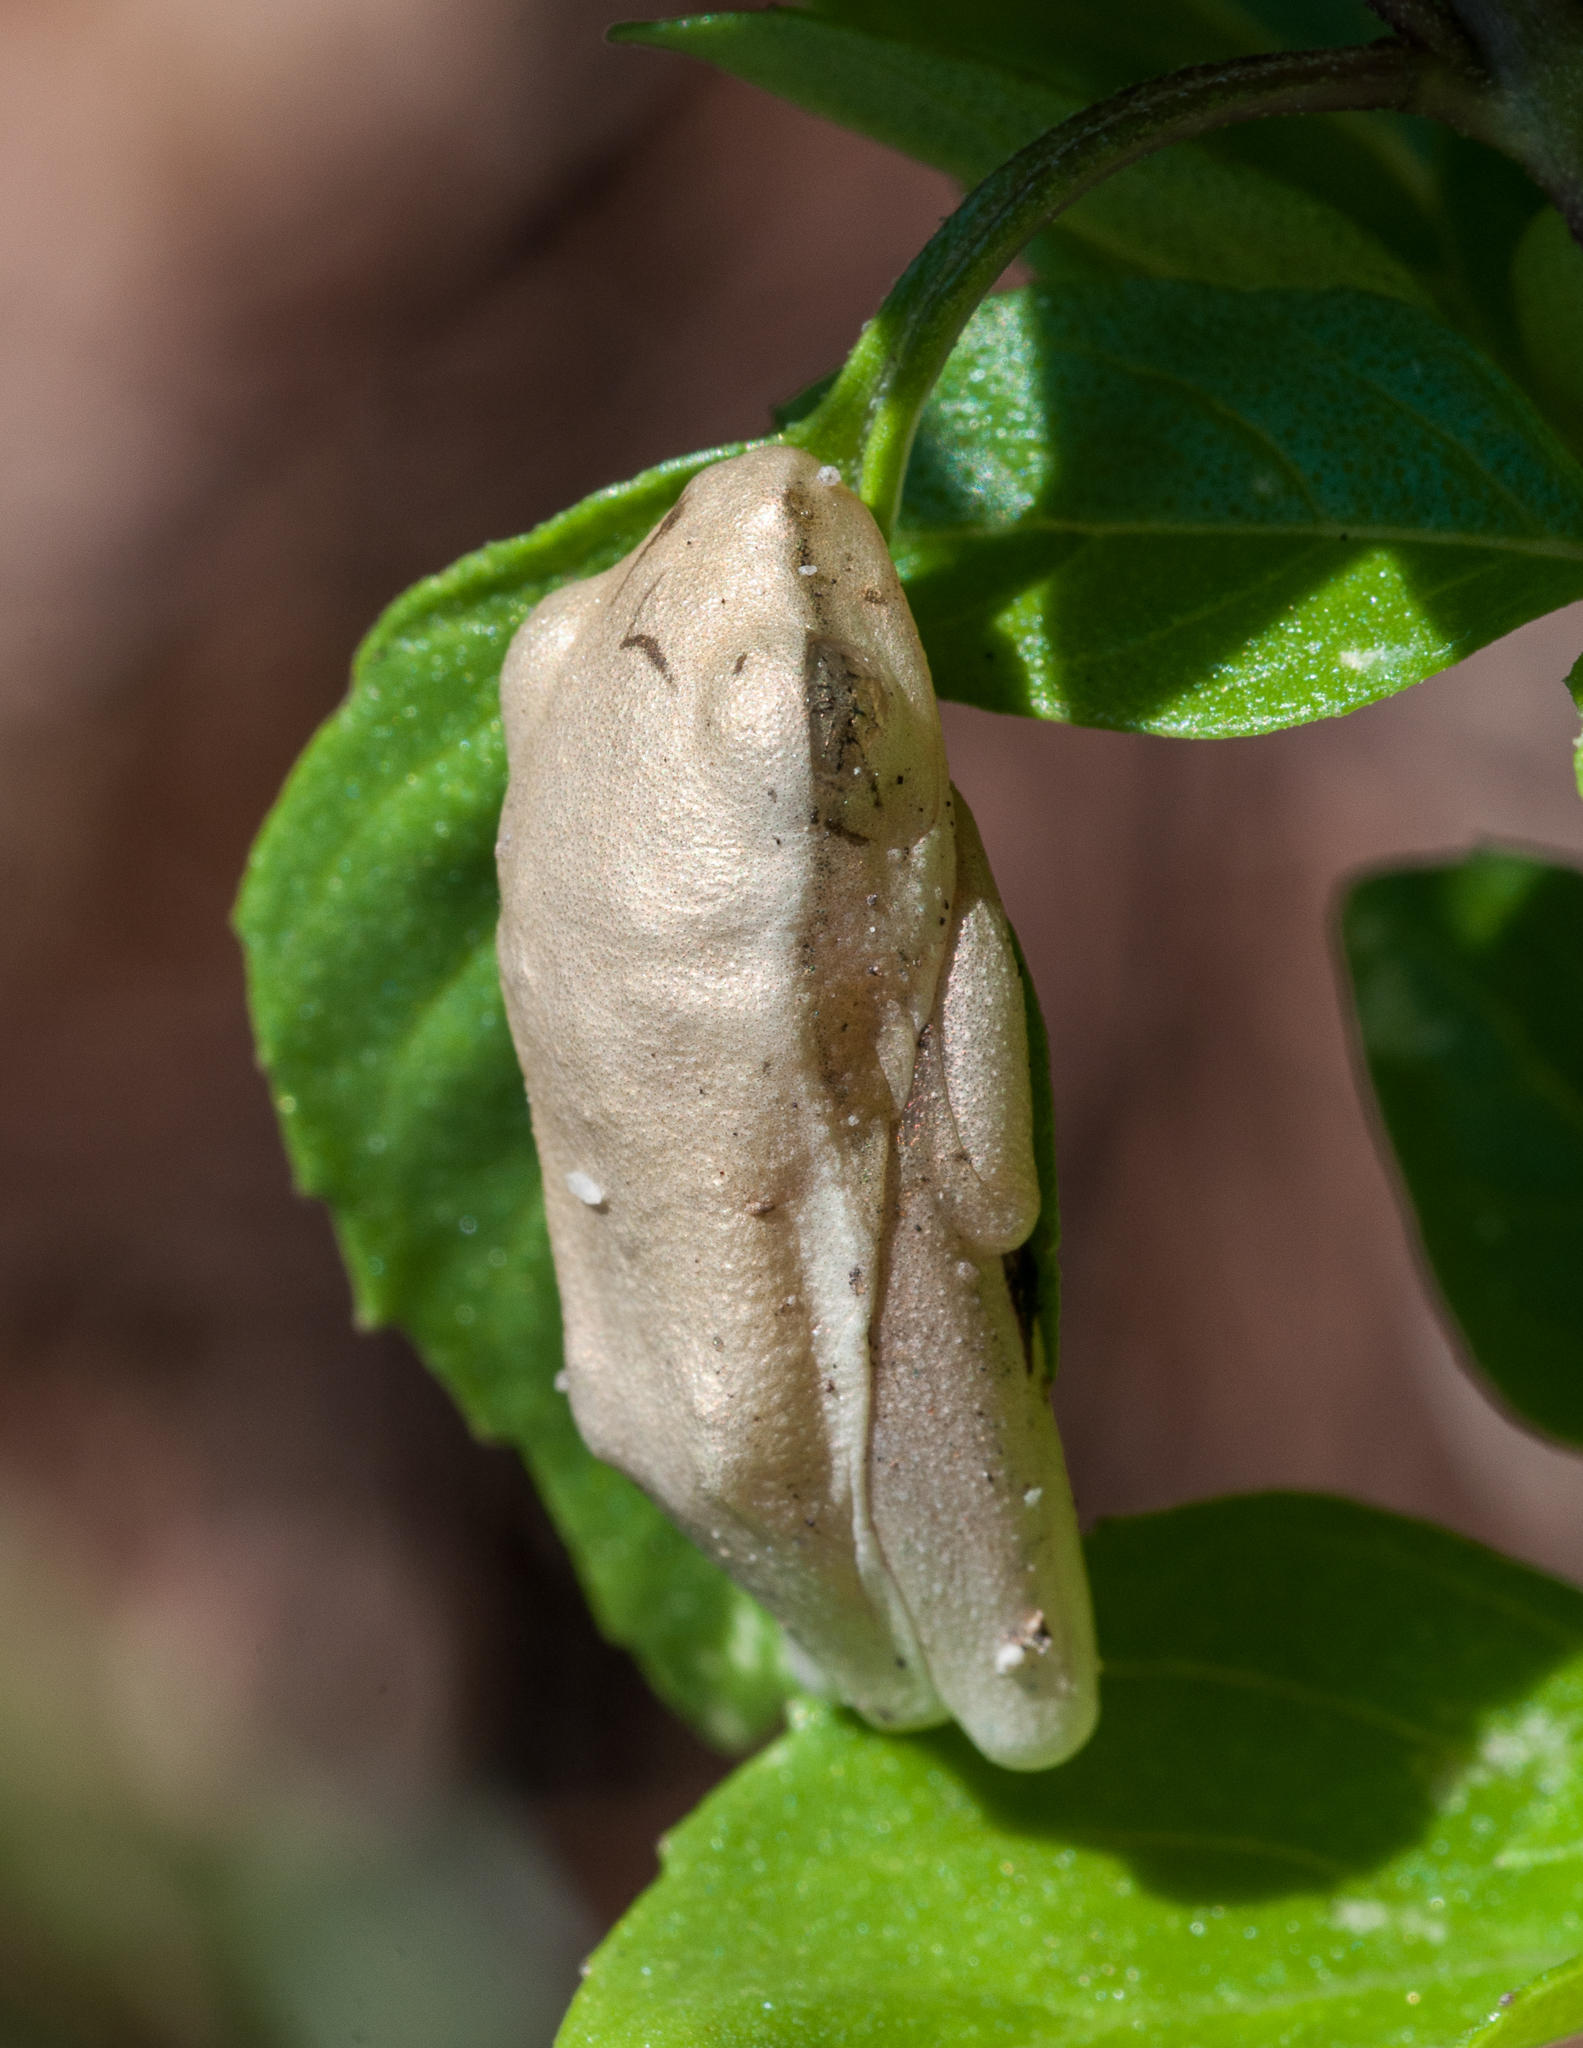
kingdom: Animalia
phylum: Chordata
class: Amphibia
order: Anura
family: Hyperoliidae
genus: Hyperolius
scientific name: Hyperolius horstockii
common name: Arum lily frog
